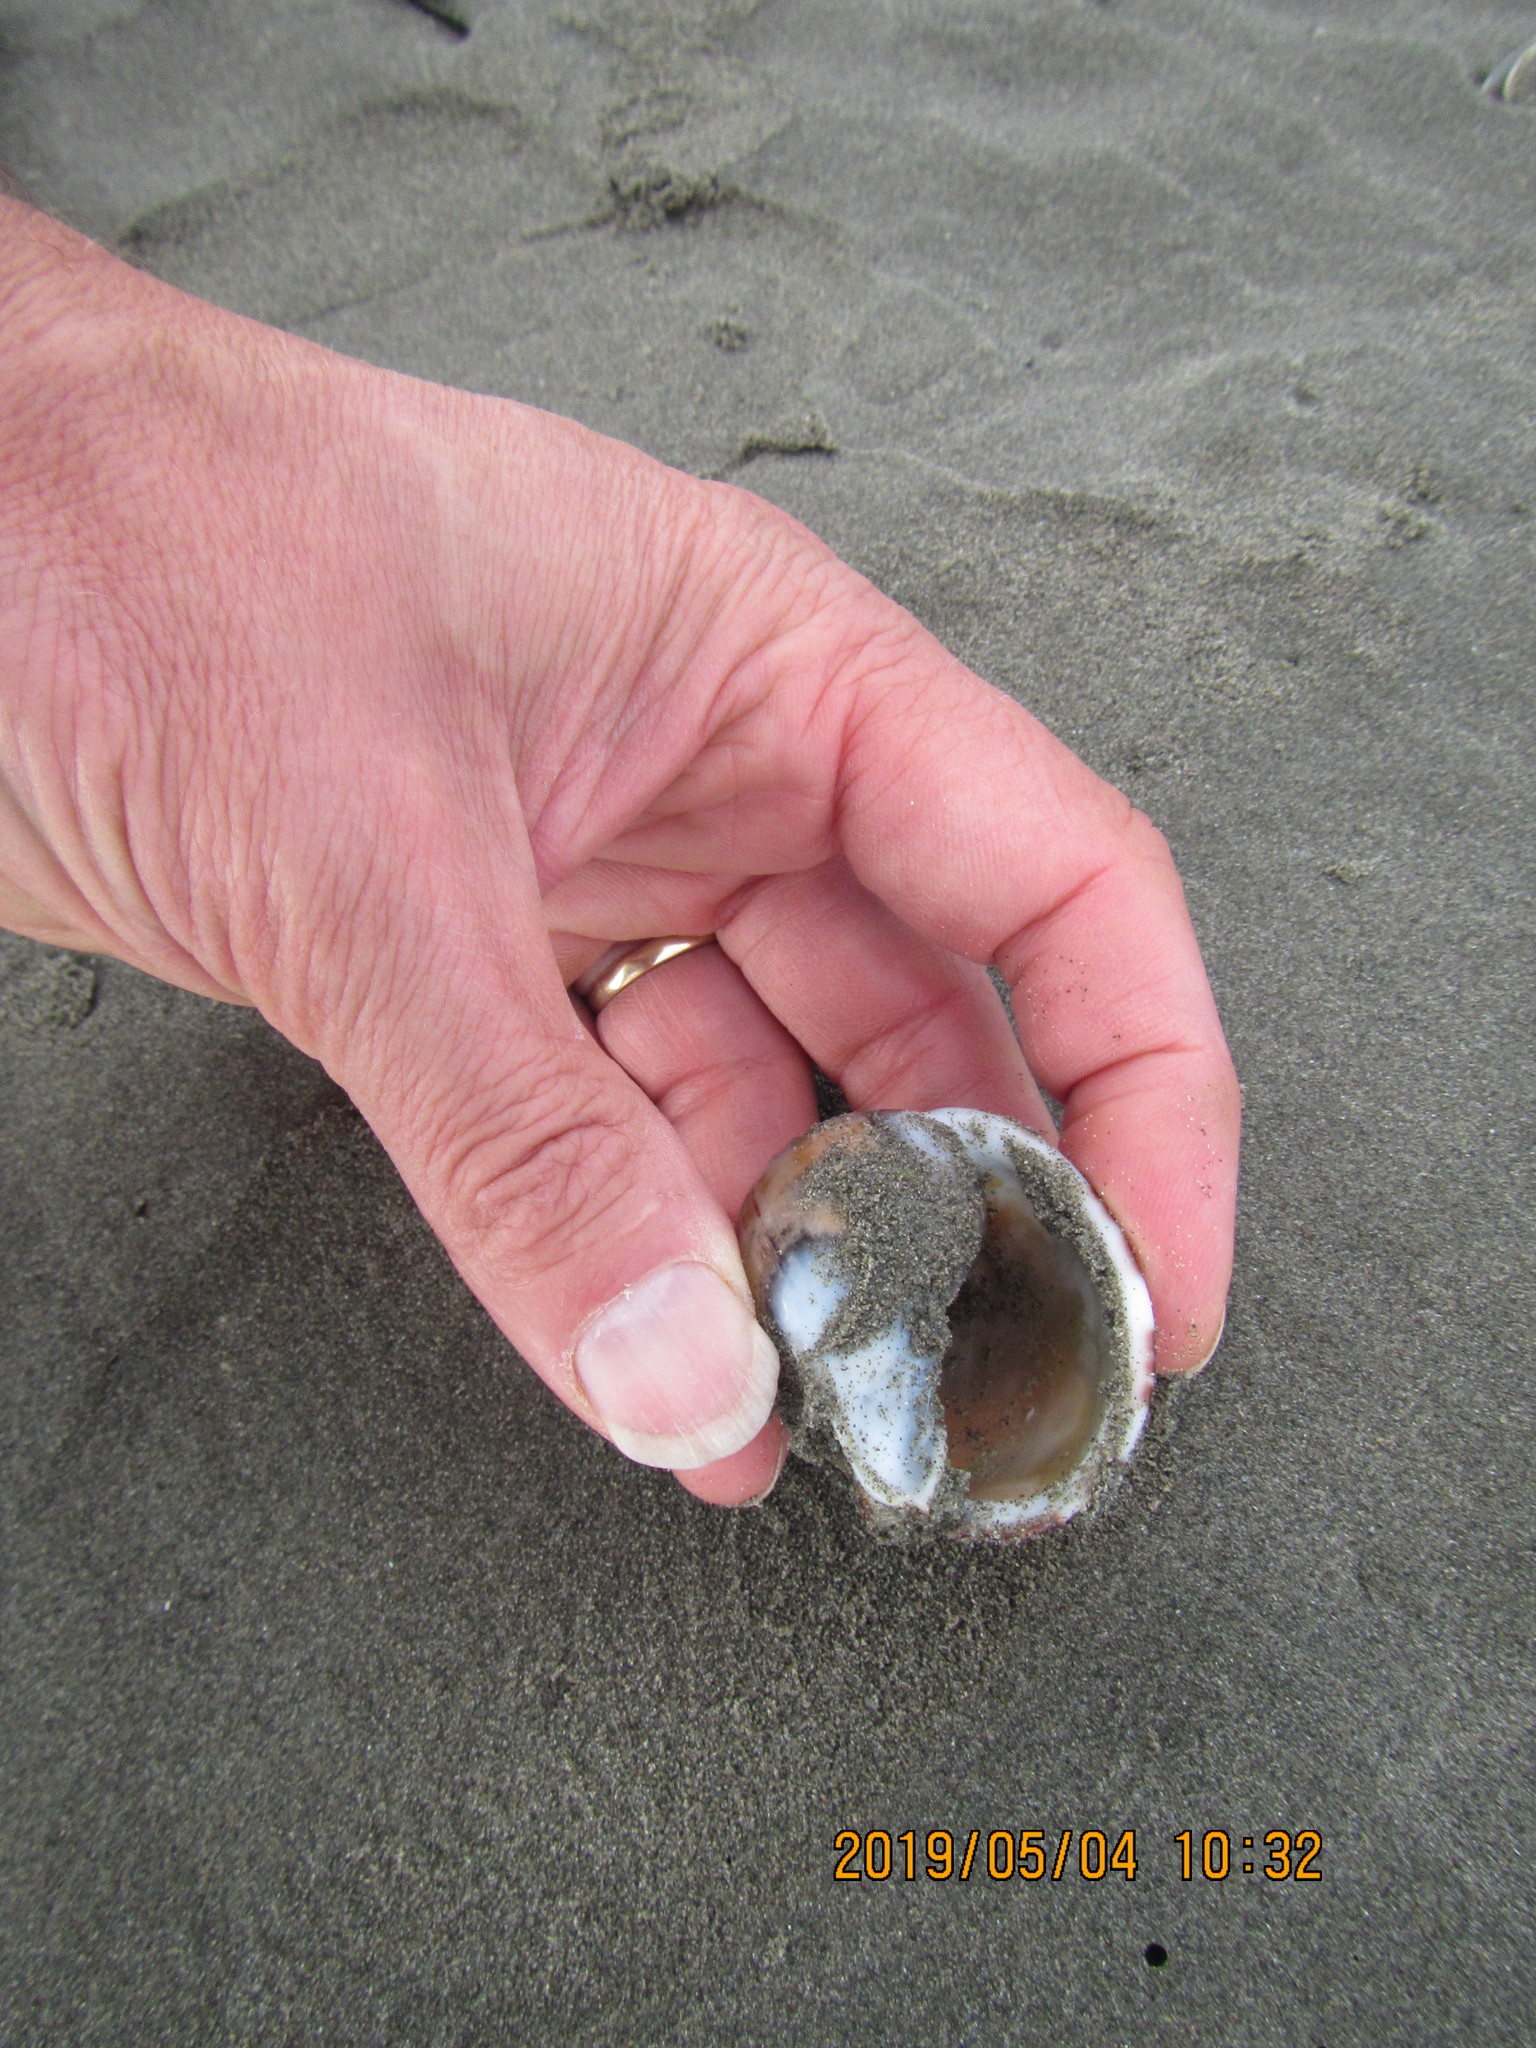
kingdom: Animalia
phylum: Mollusca
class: Gastropoda
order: Littorinimorpha
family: Cassidae
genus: Semicassis
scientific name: Semicassis pyrum
